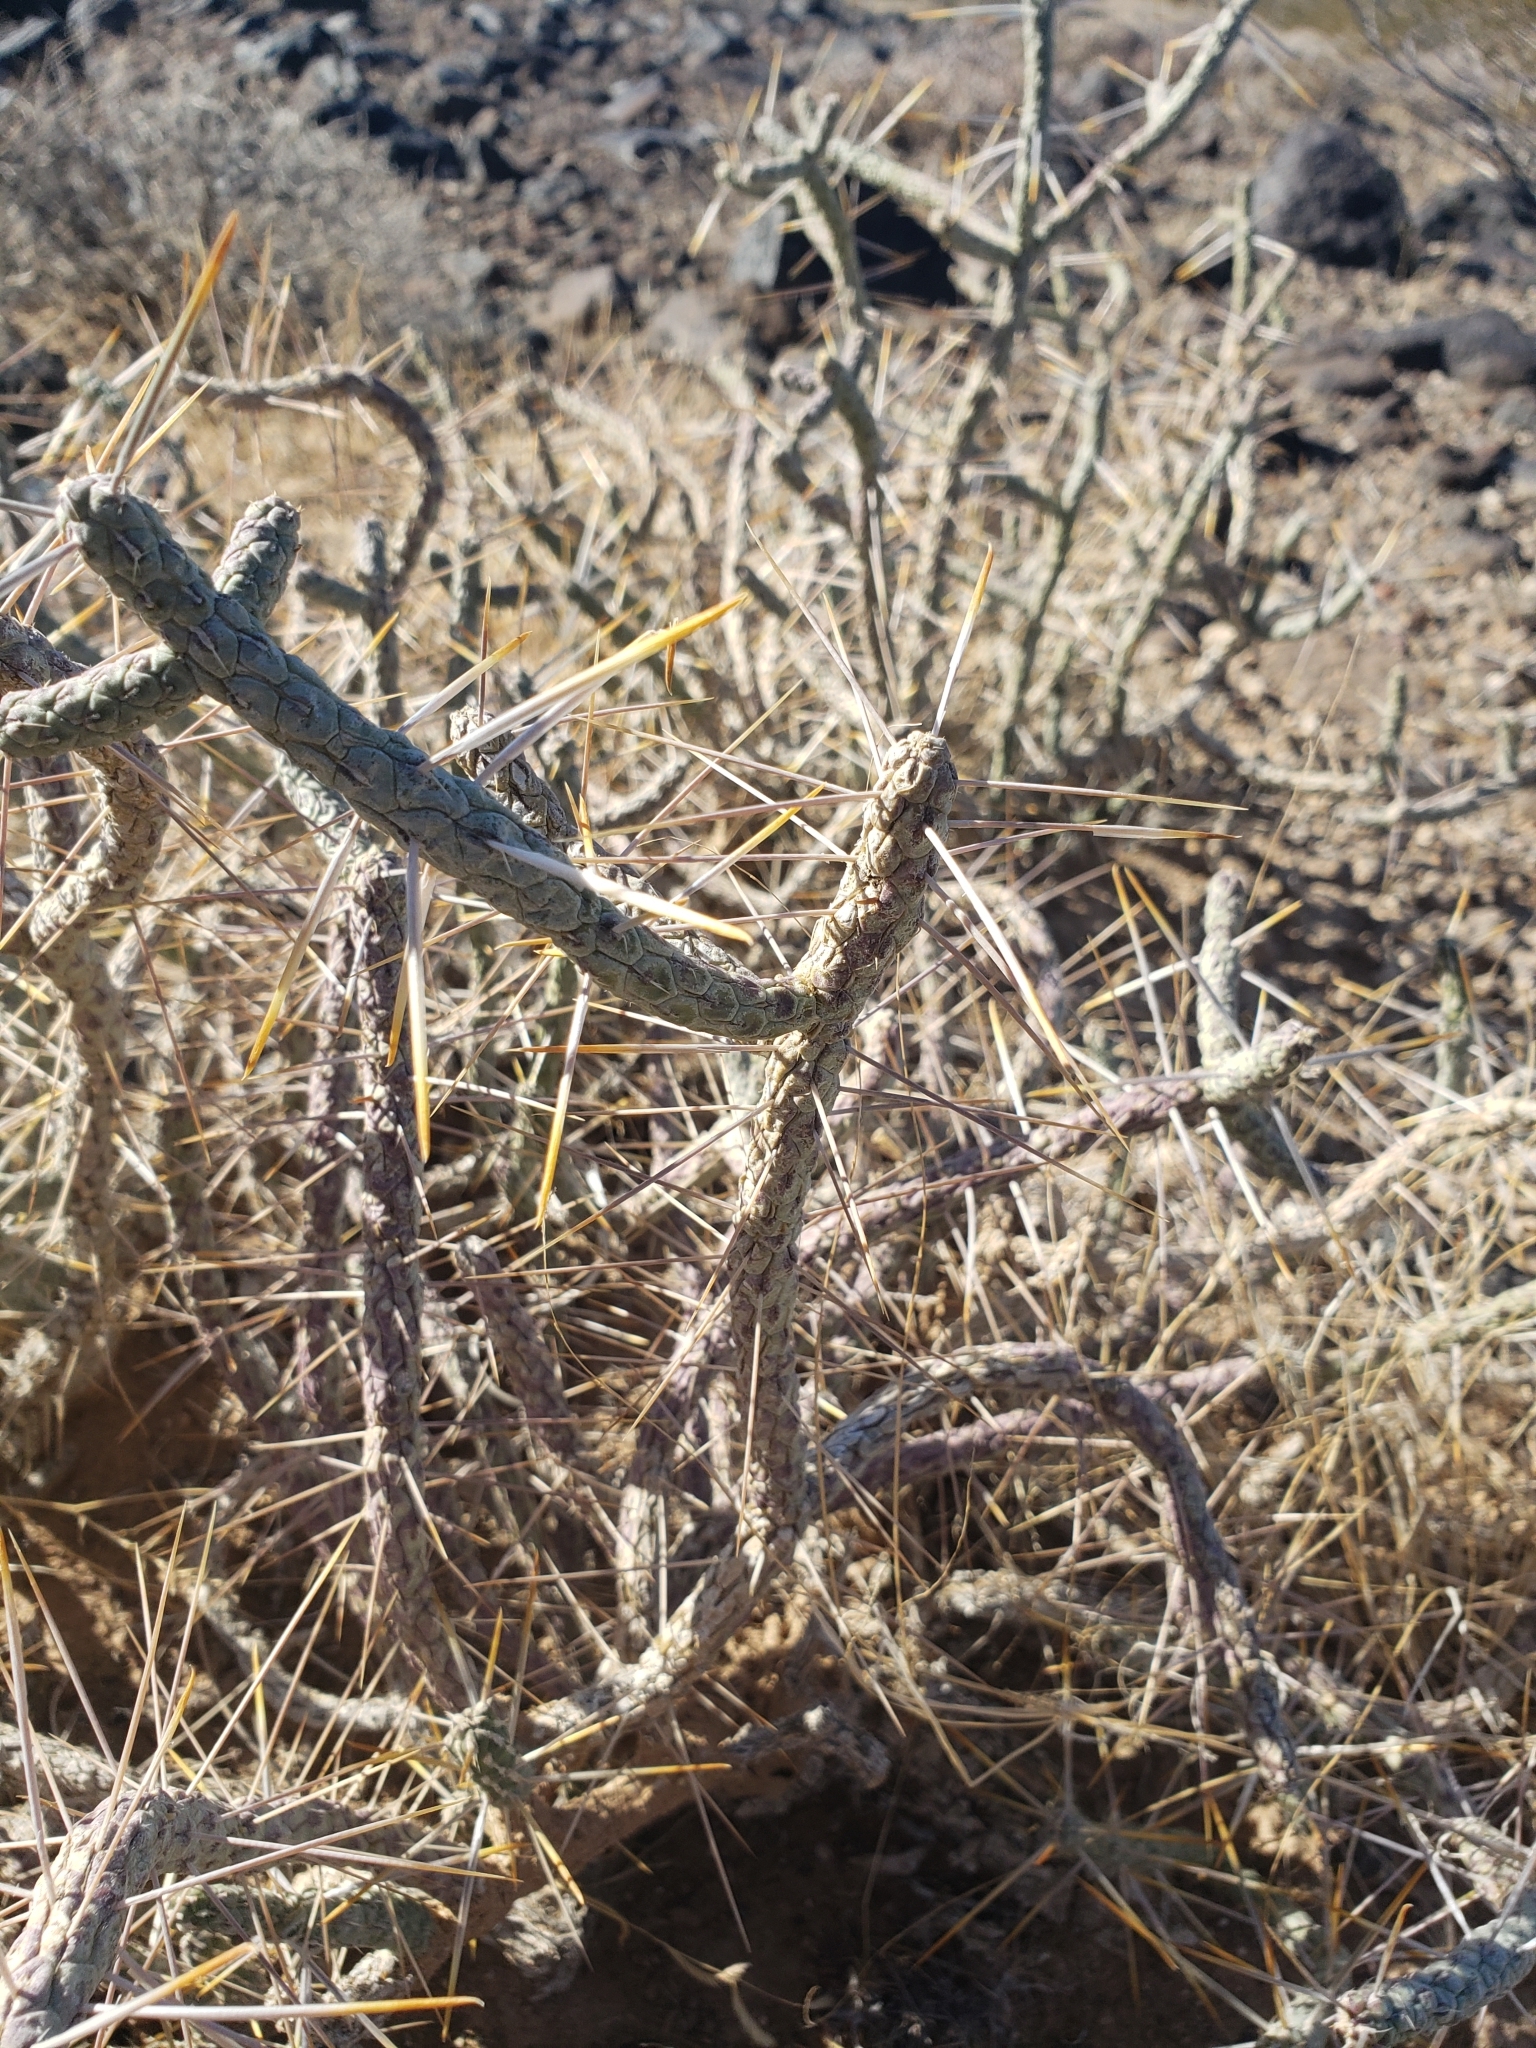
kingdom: Plantae
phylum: Tracheophyta
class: Magnoliopsida
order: Caryophyllales
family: Cactaceae
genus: Cylindropuntia
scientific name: Cylindropuntia ramosissima
